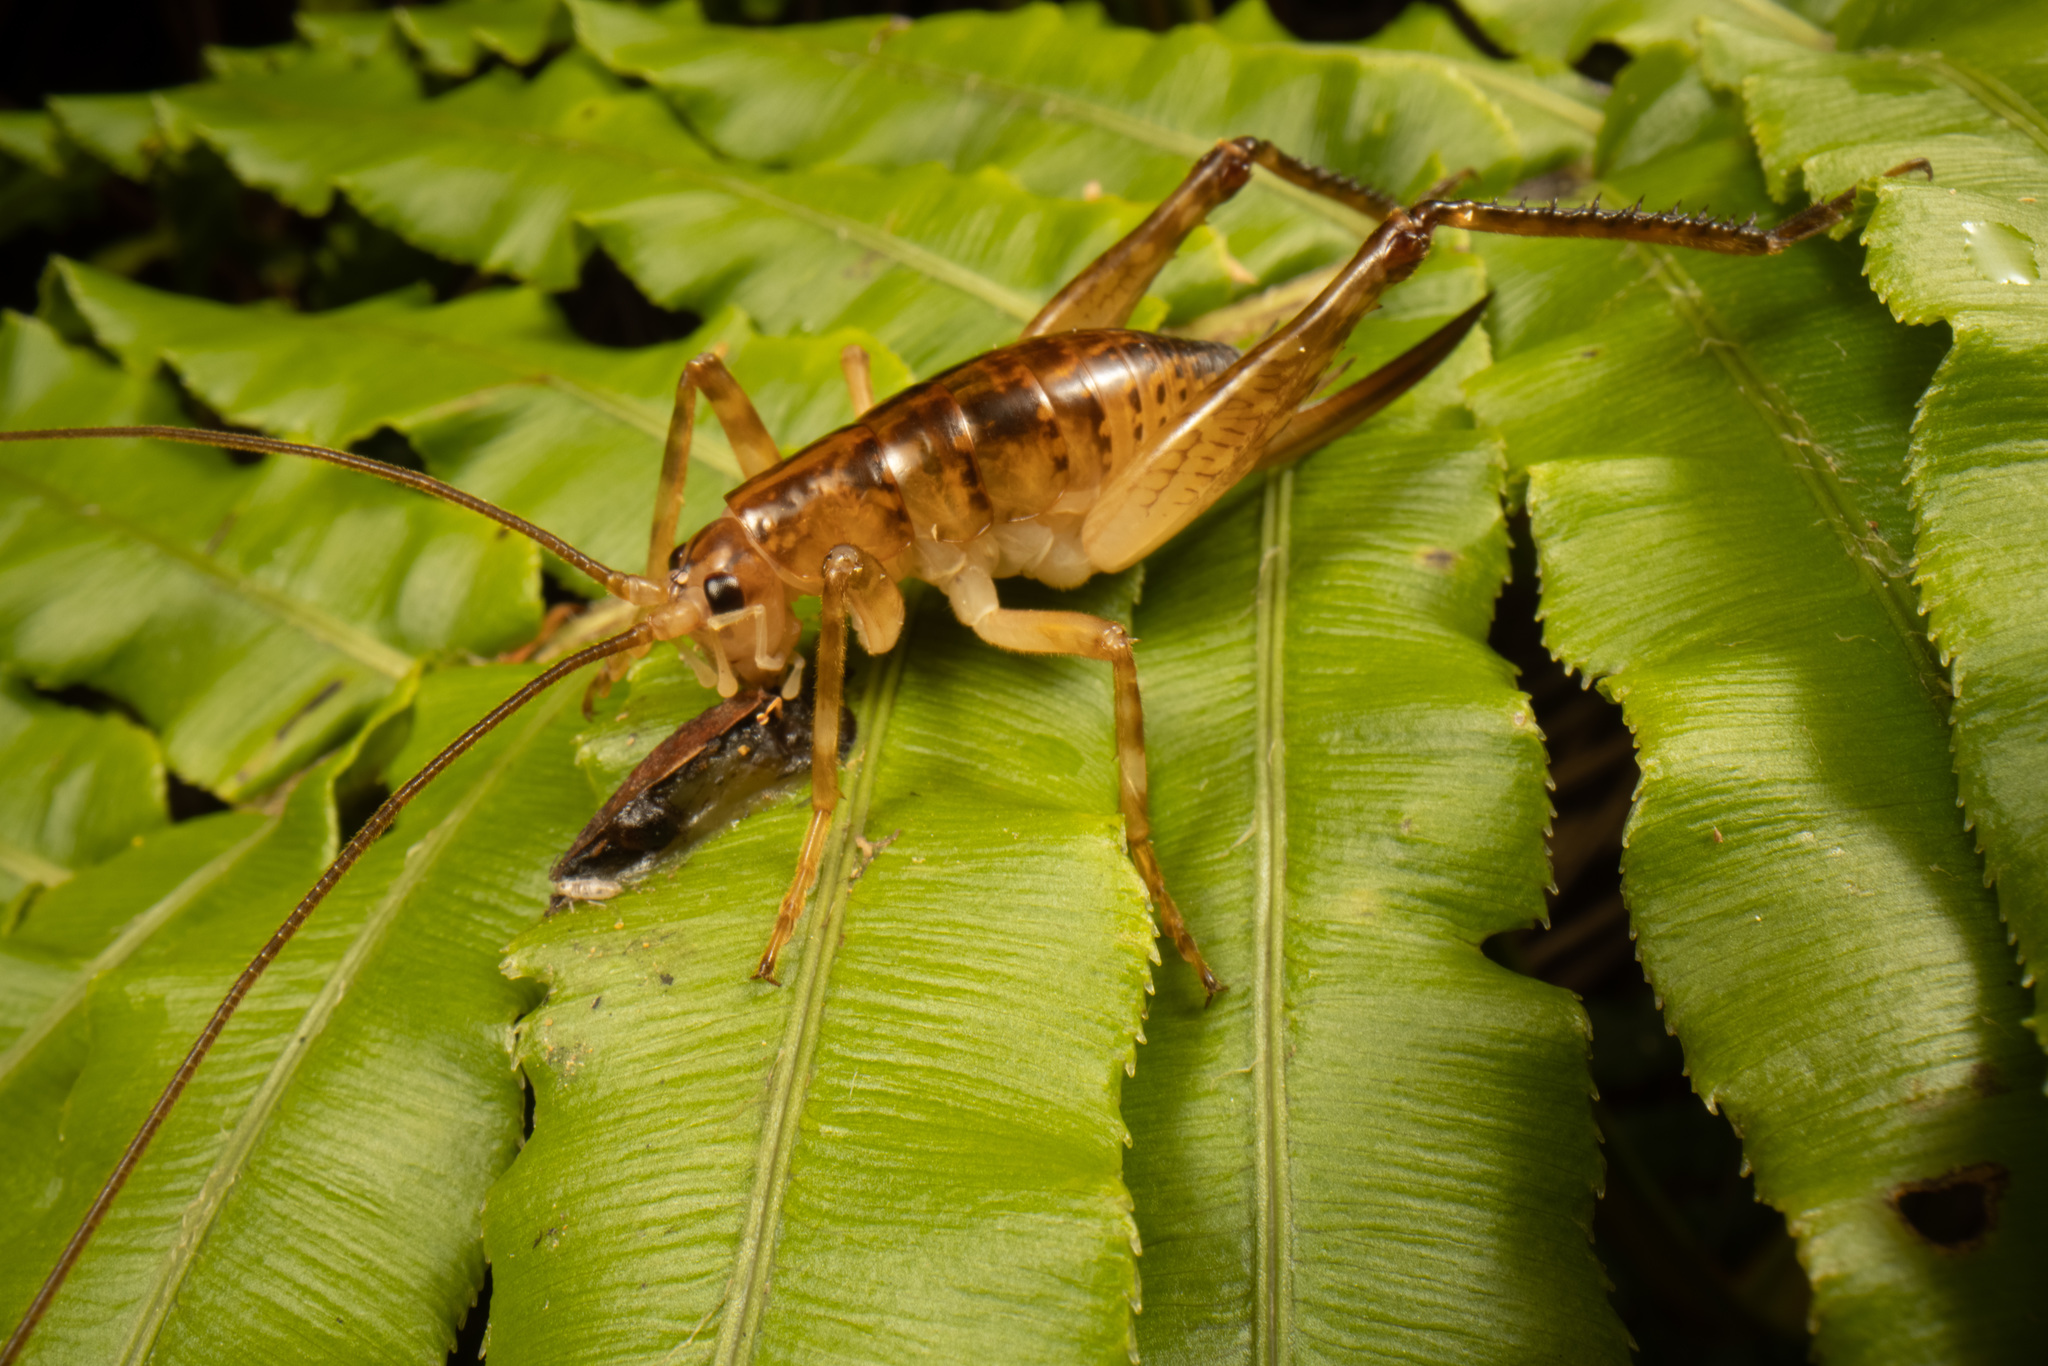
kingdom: Animalia
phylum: Arthropoda
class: Insecta
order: Orthoptera
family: Rhaphidophoridae
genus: Talitropsis
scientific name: Talitropsis sedilloti
